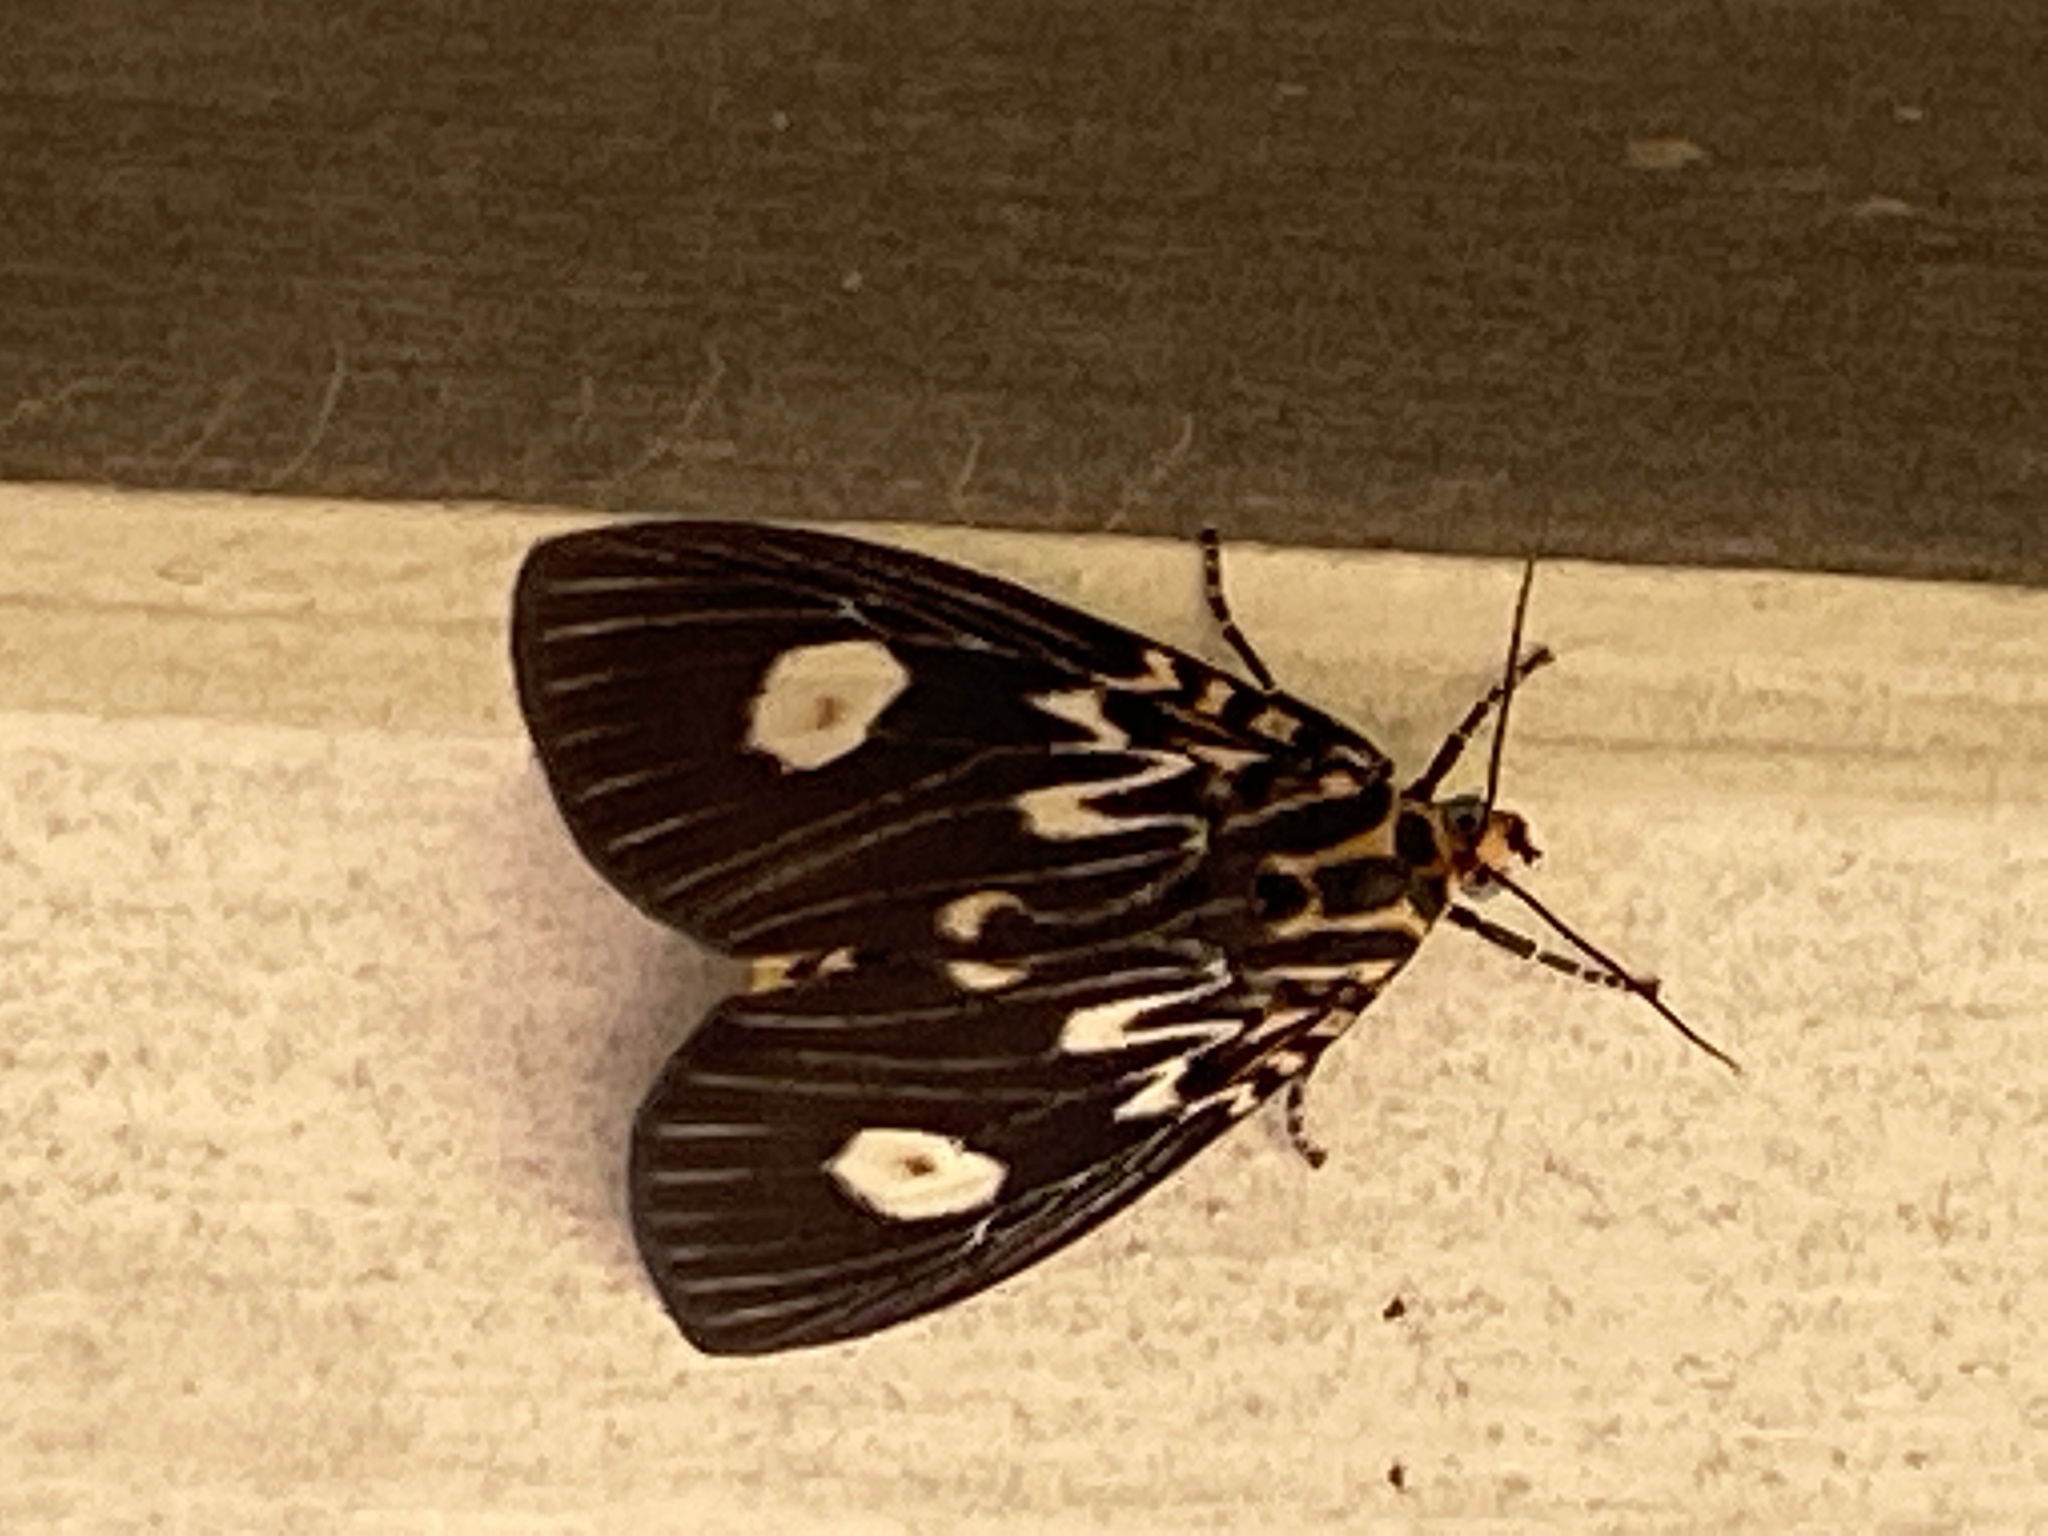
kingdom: Animalia
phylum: Arthropoda
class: Insecta
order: Lepidoptera
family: Erebidae
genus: Asota
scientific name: Asota plagiata
